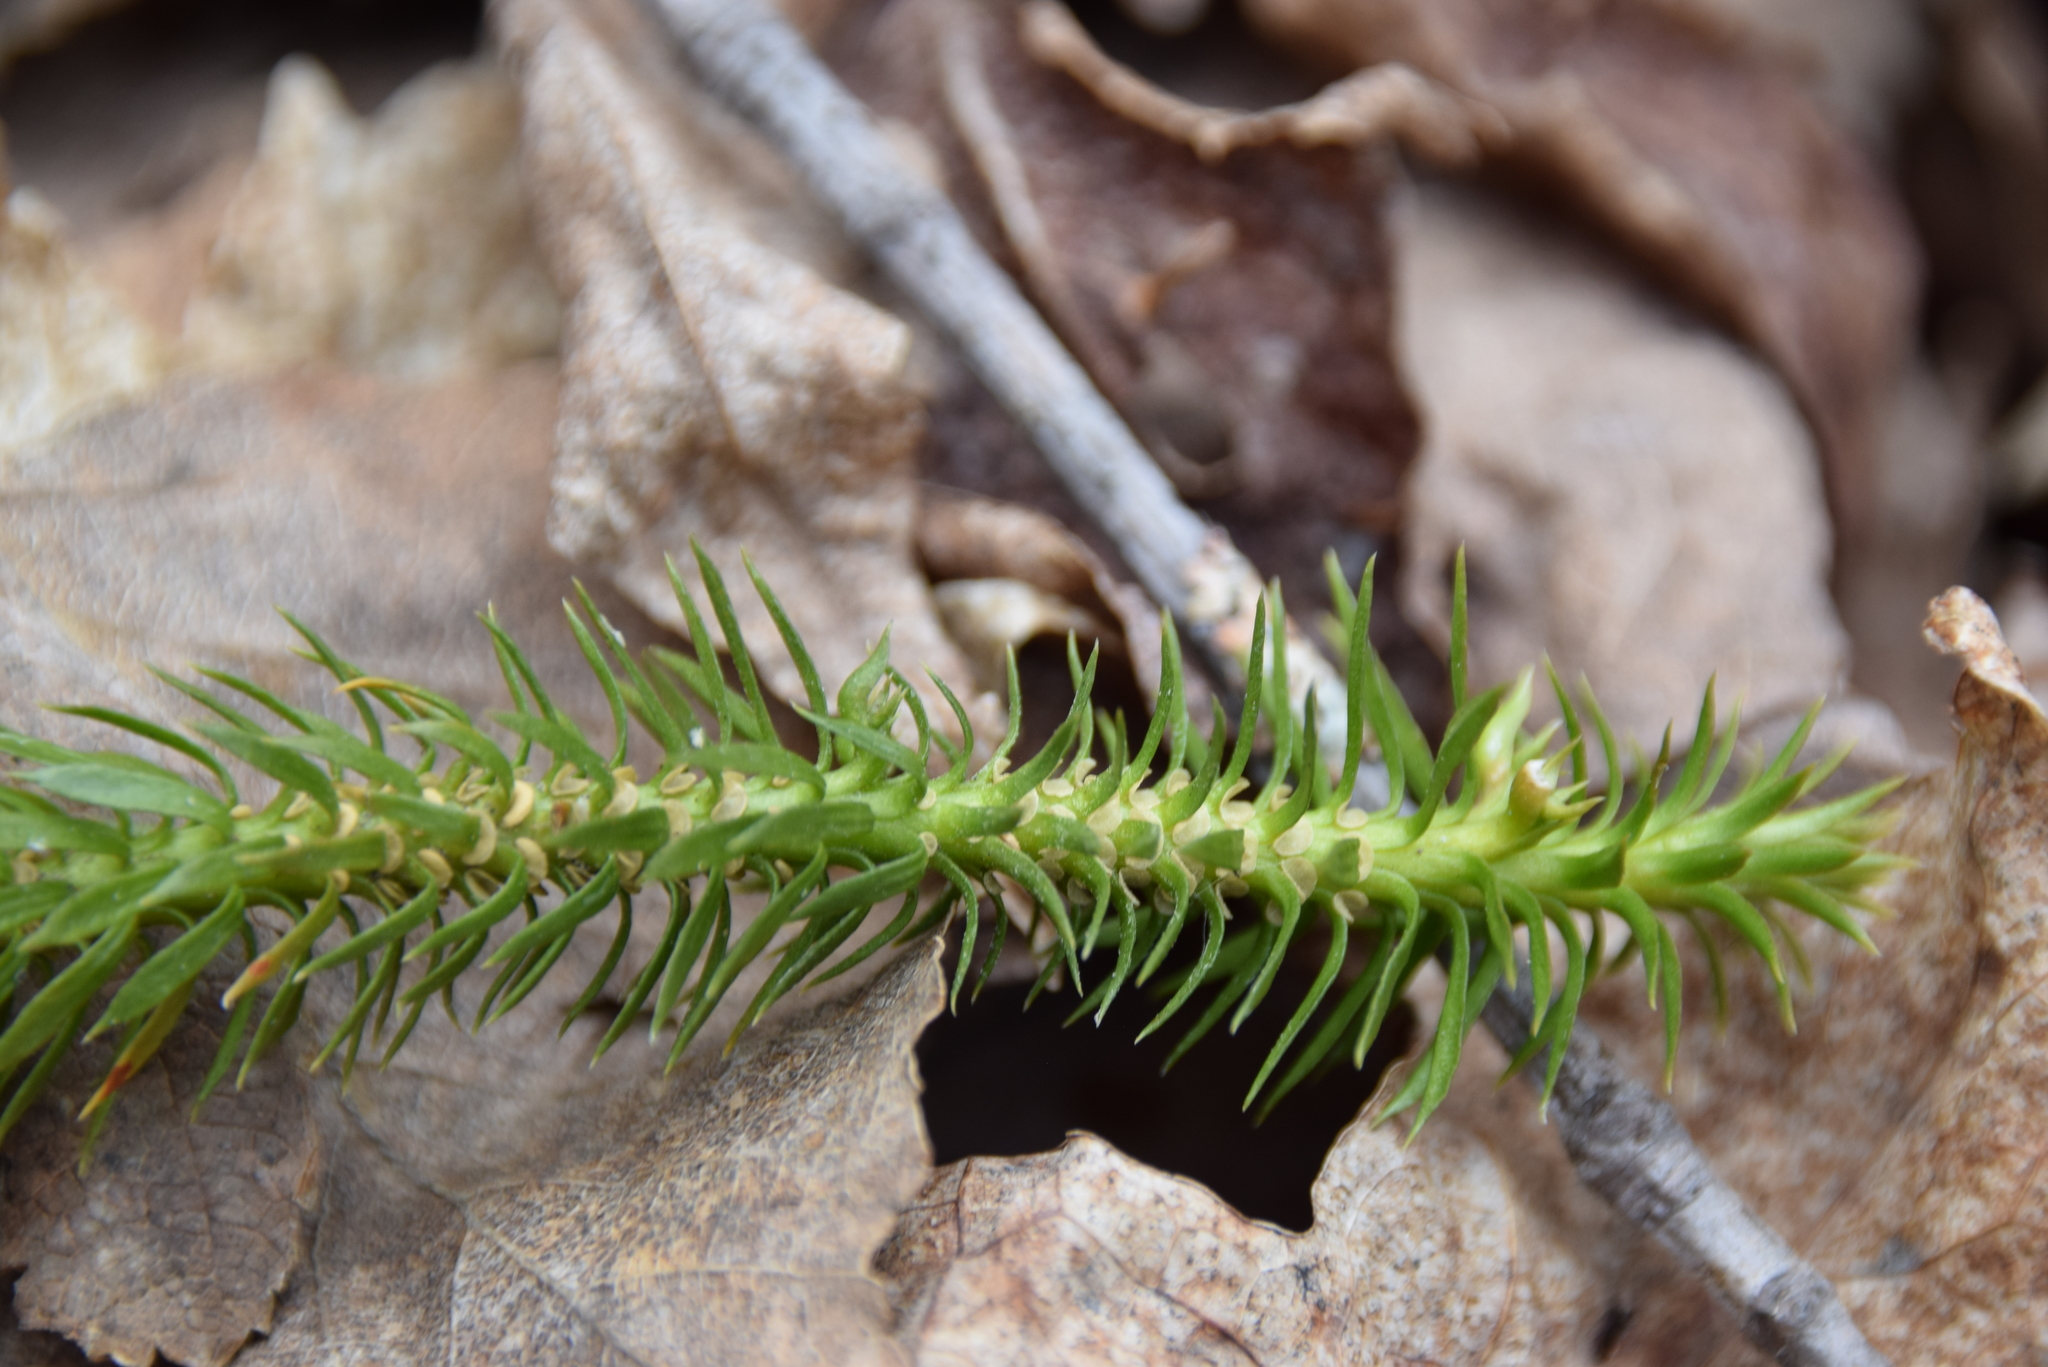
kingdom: Plantae
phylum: Tracheophyta
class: Lycopodiopsida
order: Lycopodiales
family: Lycopodiaceae
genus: Huperzia
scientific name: Huperzia lucidula
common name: Shining clubmoss
